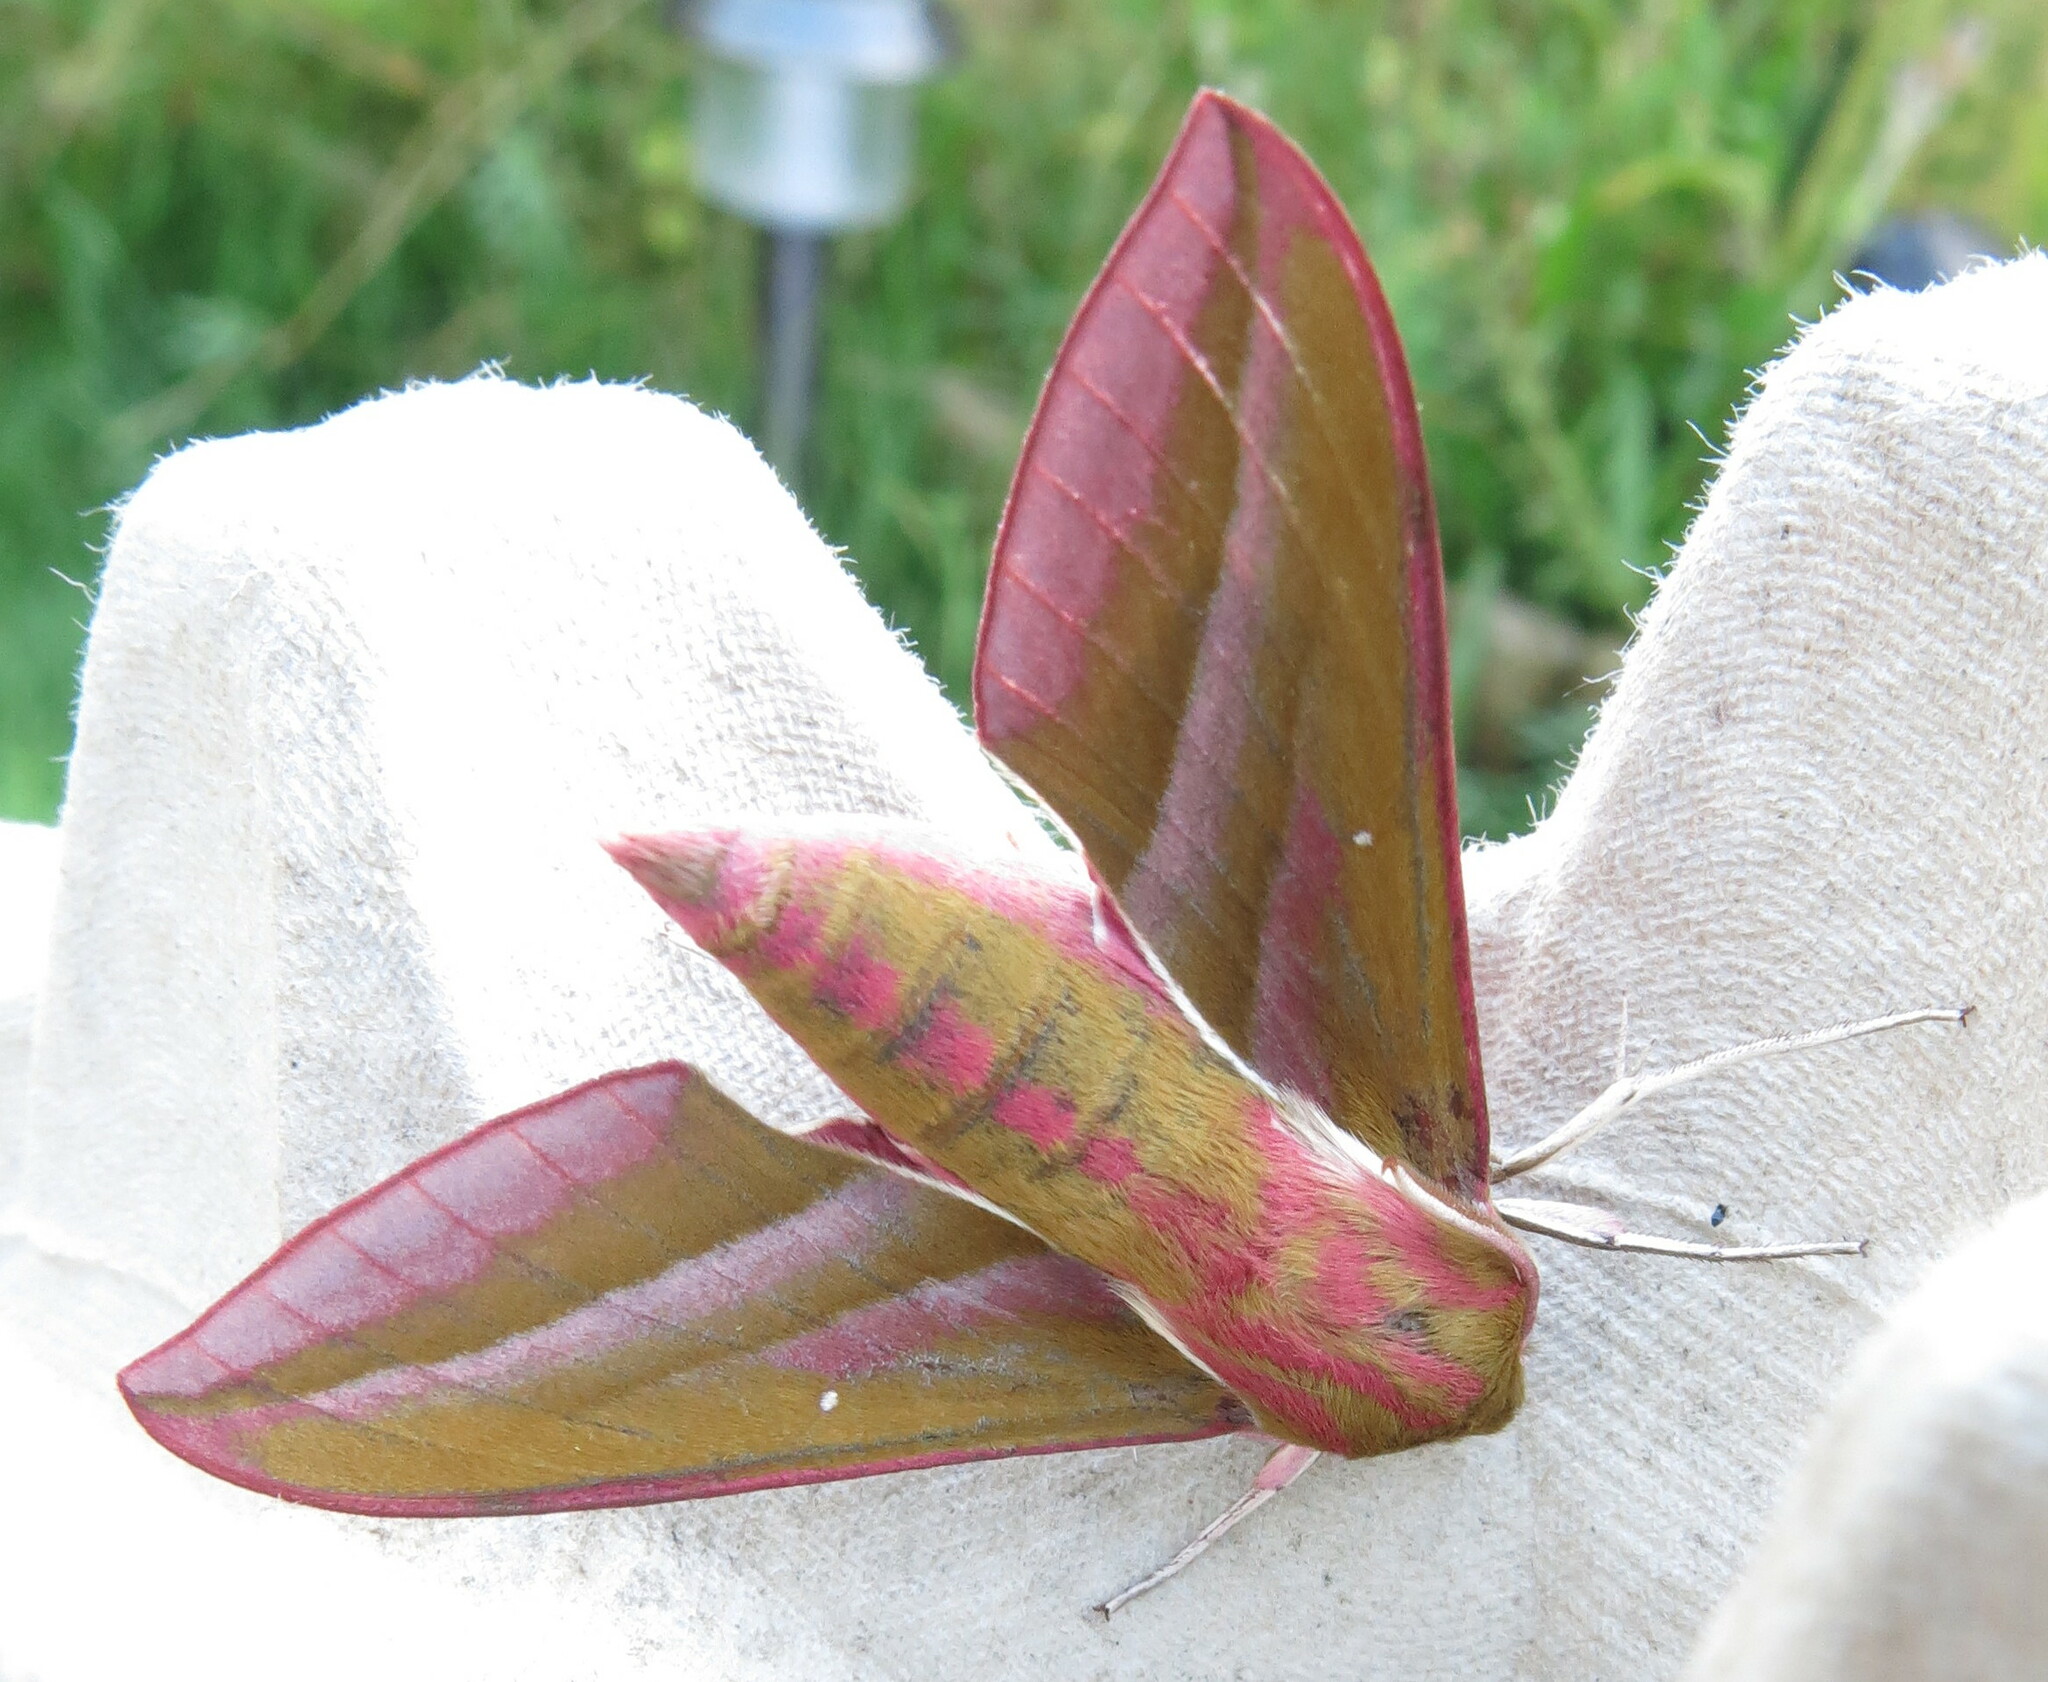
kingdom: Animalia
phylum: Arthropoda
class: Insecta
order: Lepidoptera
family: Sphingidae
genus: Deilephila
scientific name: Deilephila elpenor
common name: Elephant hawk-moth
